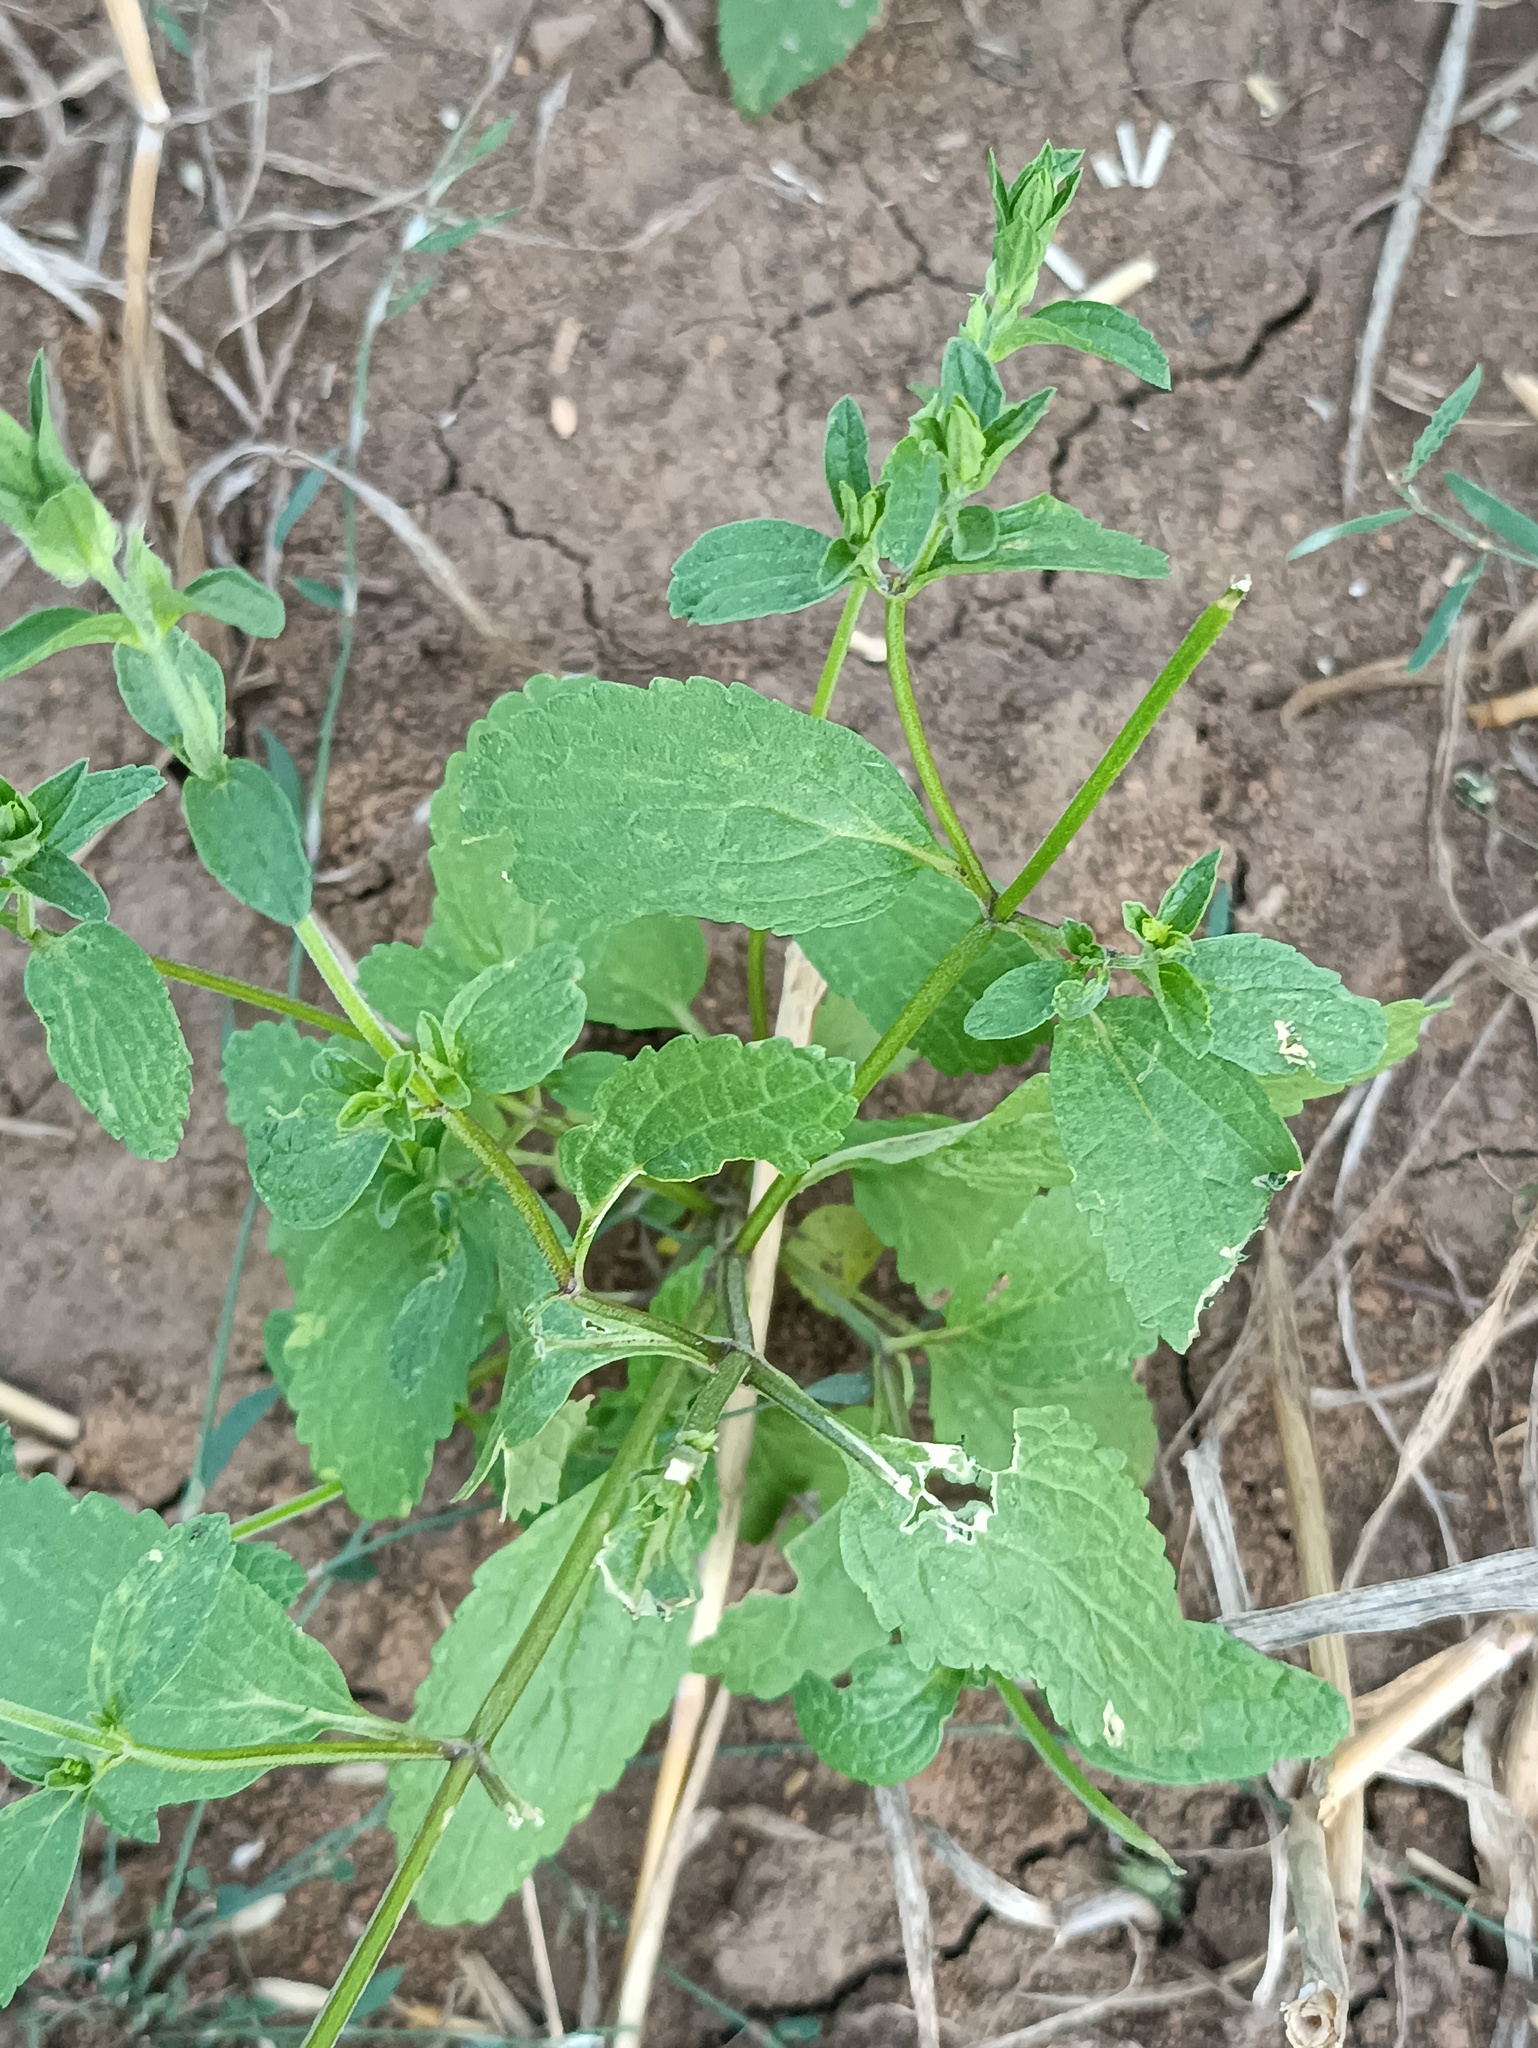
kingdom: Plantae
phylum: Tracheophyta
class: Magnoliopsida
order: Lamiales
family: Lamiaceae
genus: Stachys
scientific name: Stachys annua
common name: Annual yellow-woundwort
